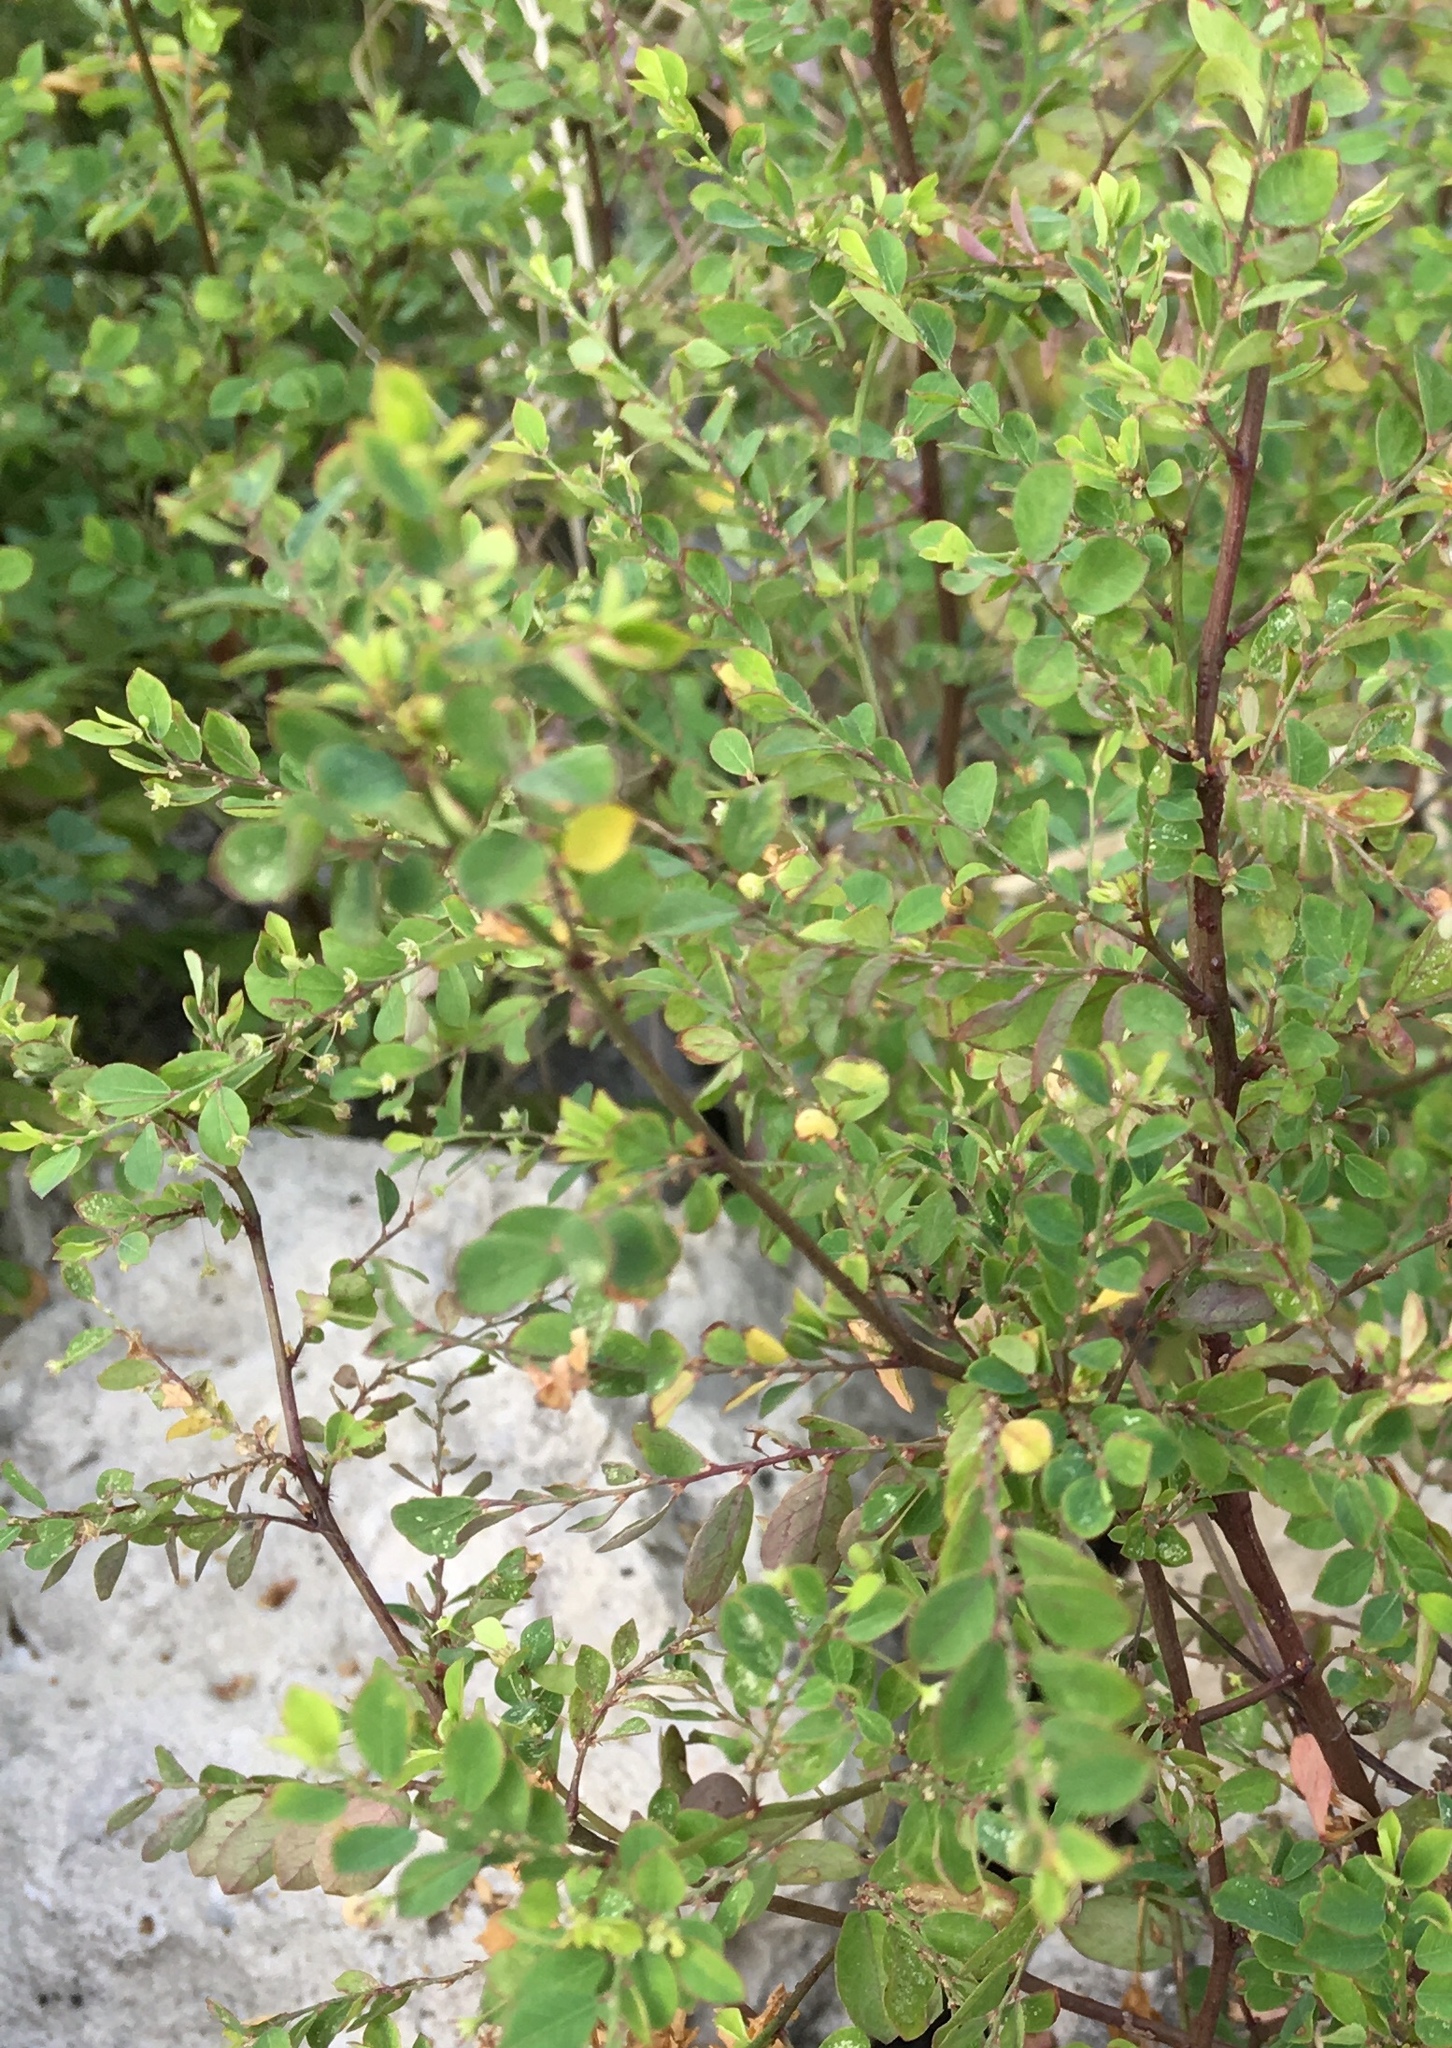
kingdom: Plantae
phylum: Tracheophyta
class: Magnoliopsida
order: Malpighiales
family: Phyllanthaceae
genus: Phyllanthus
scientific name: Phyllanthus tenellus
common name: Mascarene island leaf-flower
